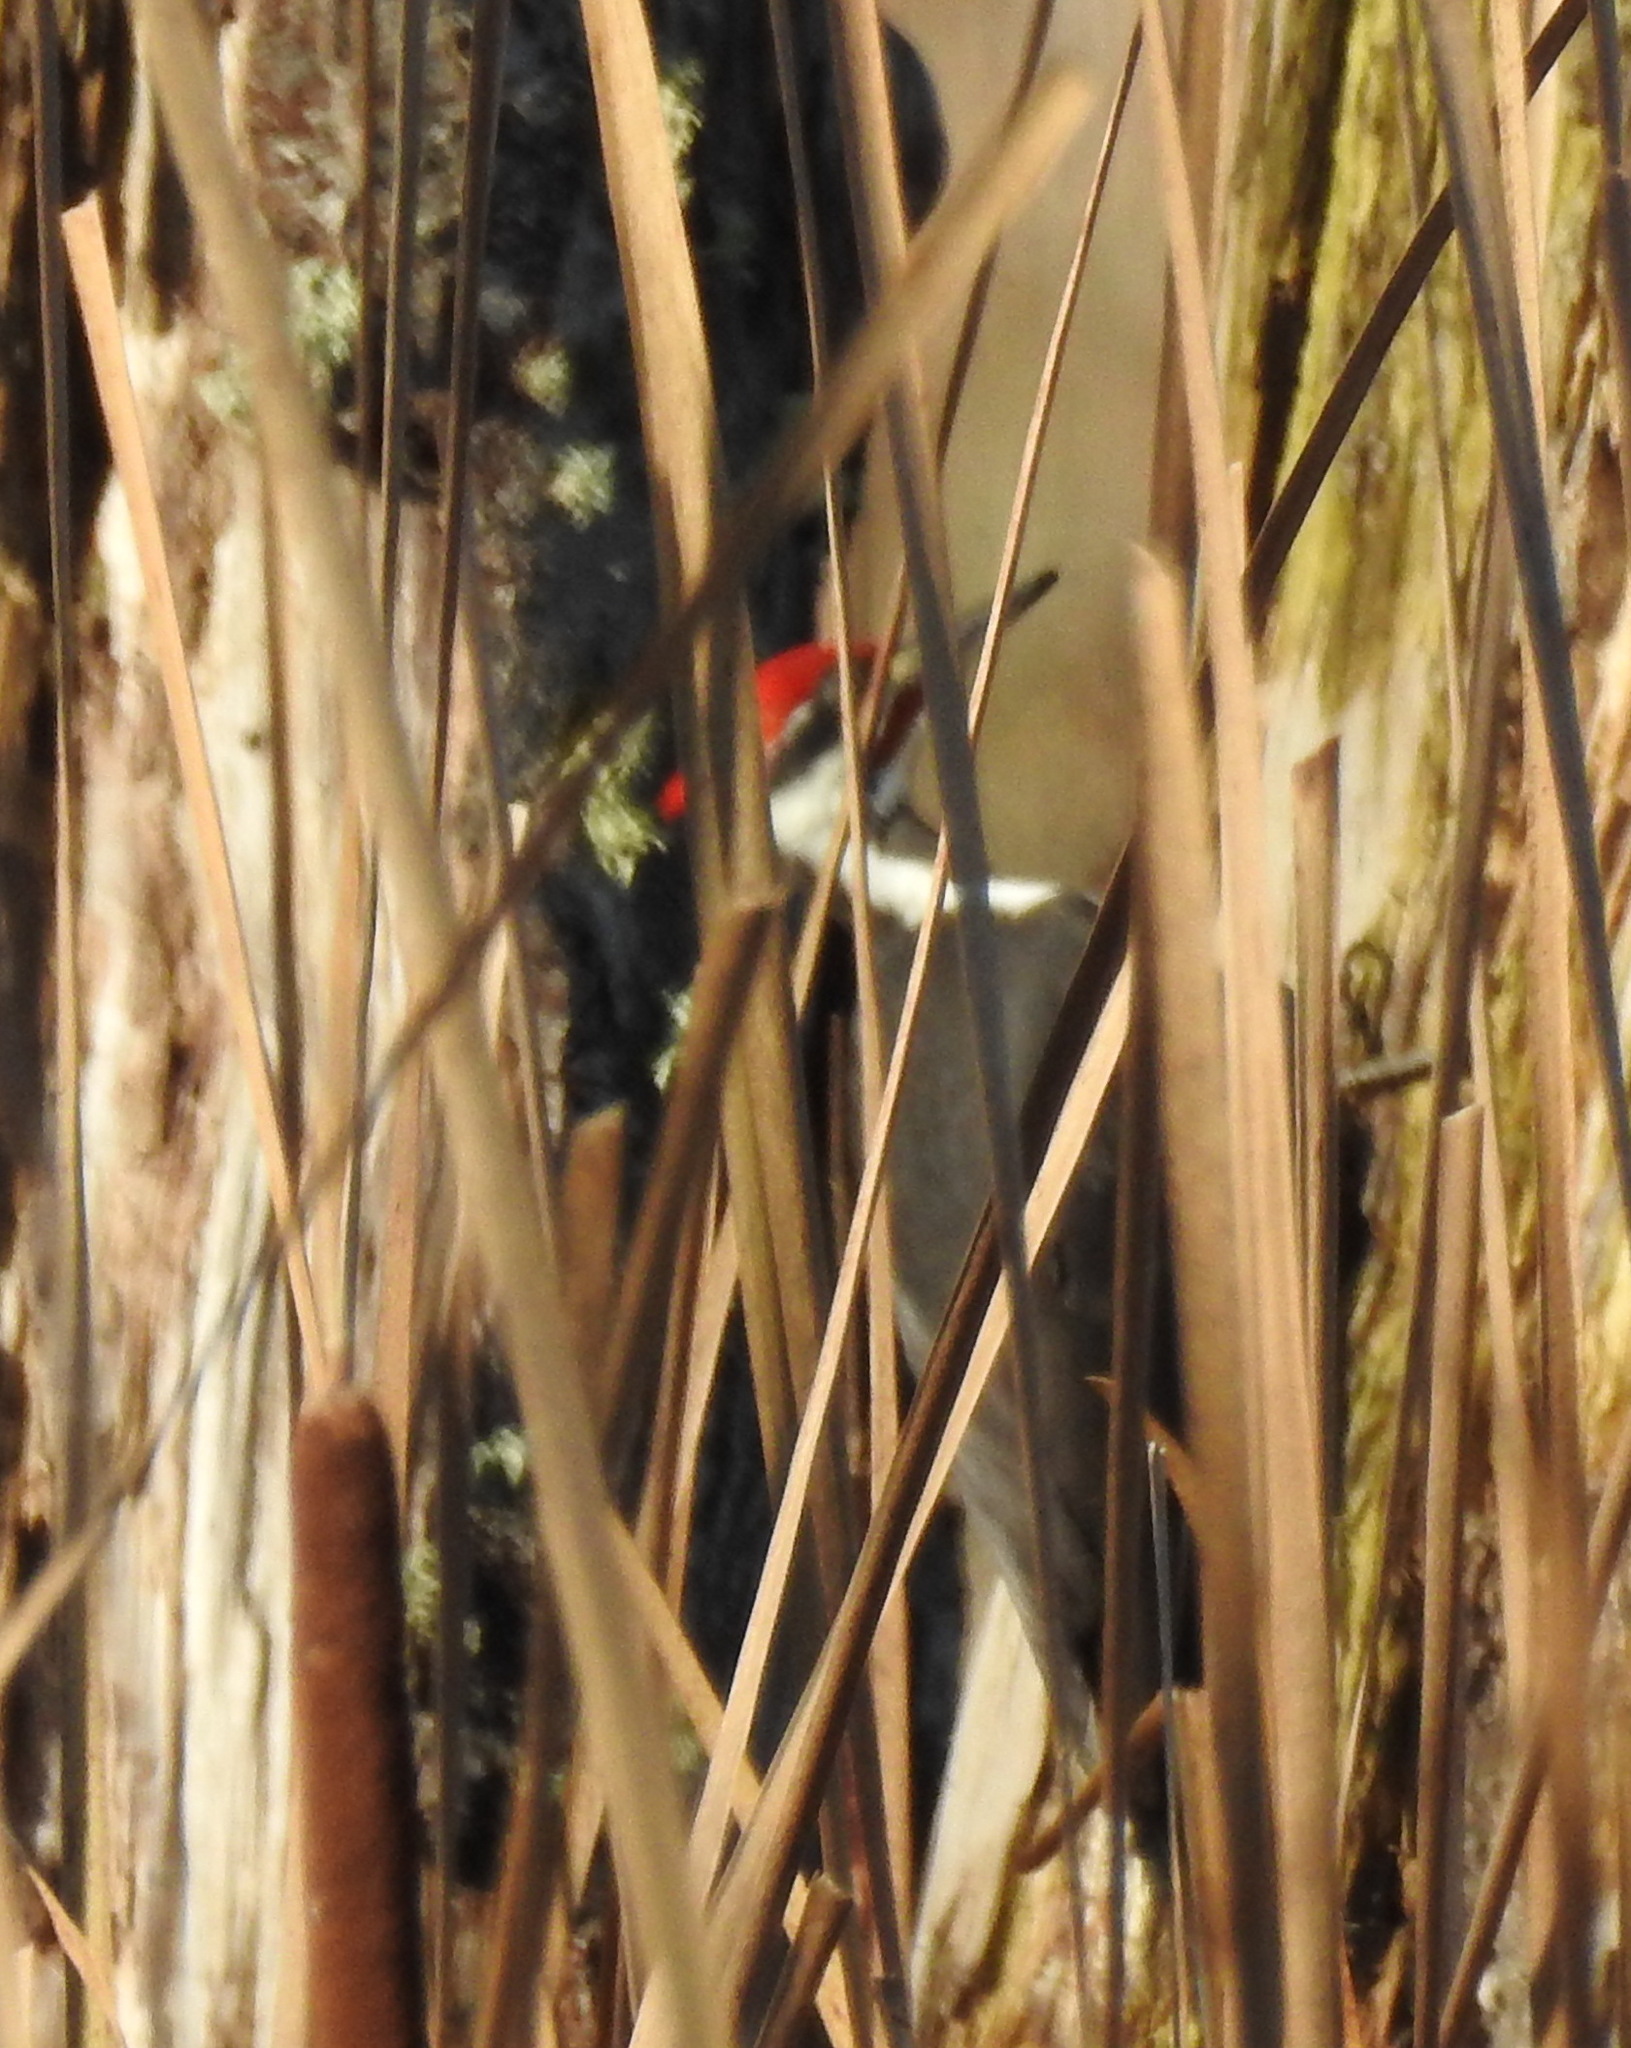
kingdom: Animalia
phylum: Chordata
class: Aves
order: Piciformes
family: Picidae
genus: Dryocopus
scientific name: Dryocopus pileatus
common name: Pileated woodpecker
